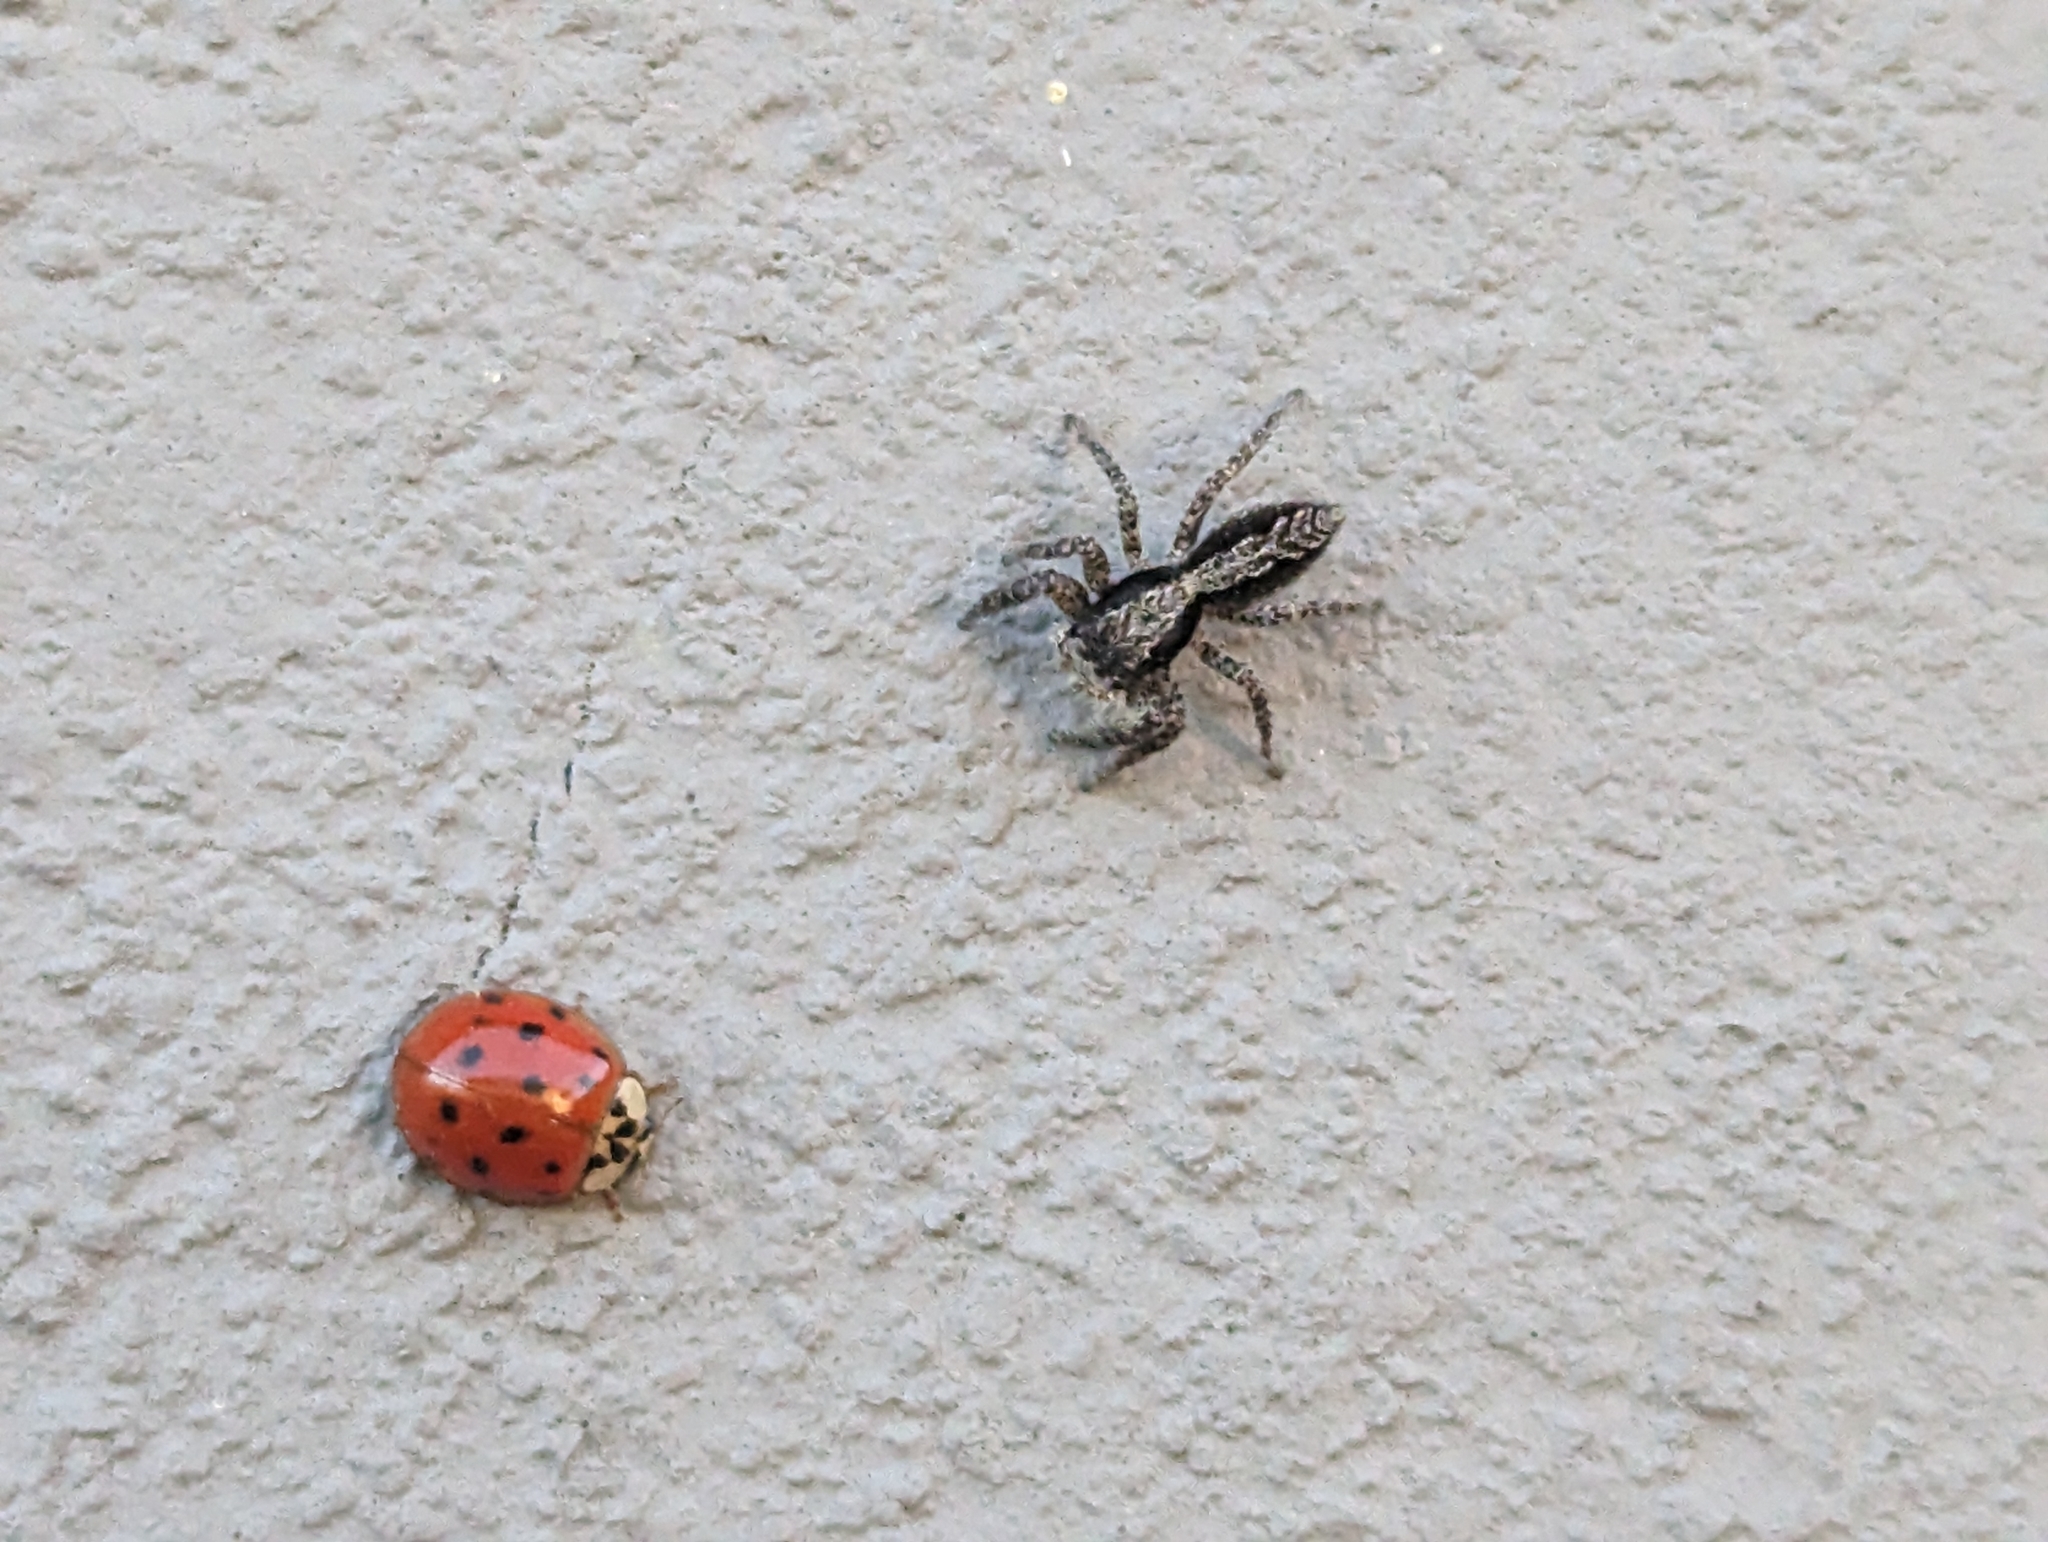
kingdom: Animalia
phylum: Arthropoda
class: Arachnida
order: Araneae
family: Salticidae
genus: Platycryptus
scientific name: Platycryptus californicus
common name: Jumping spiders
